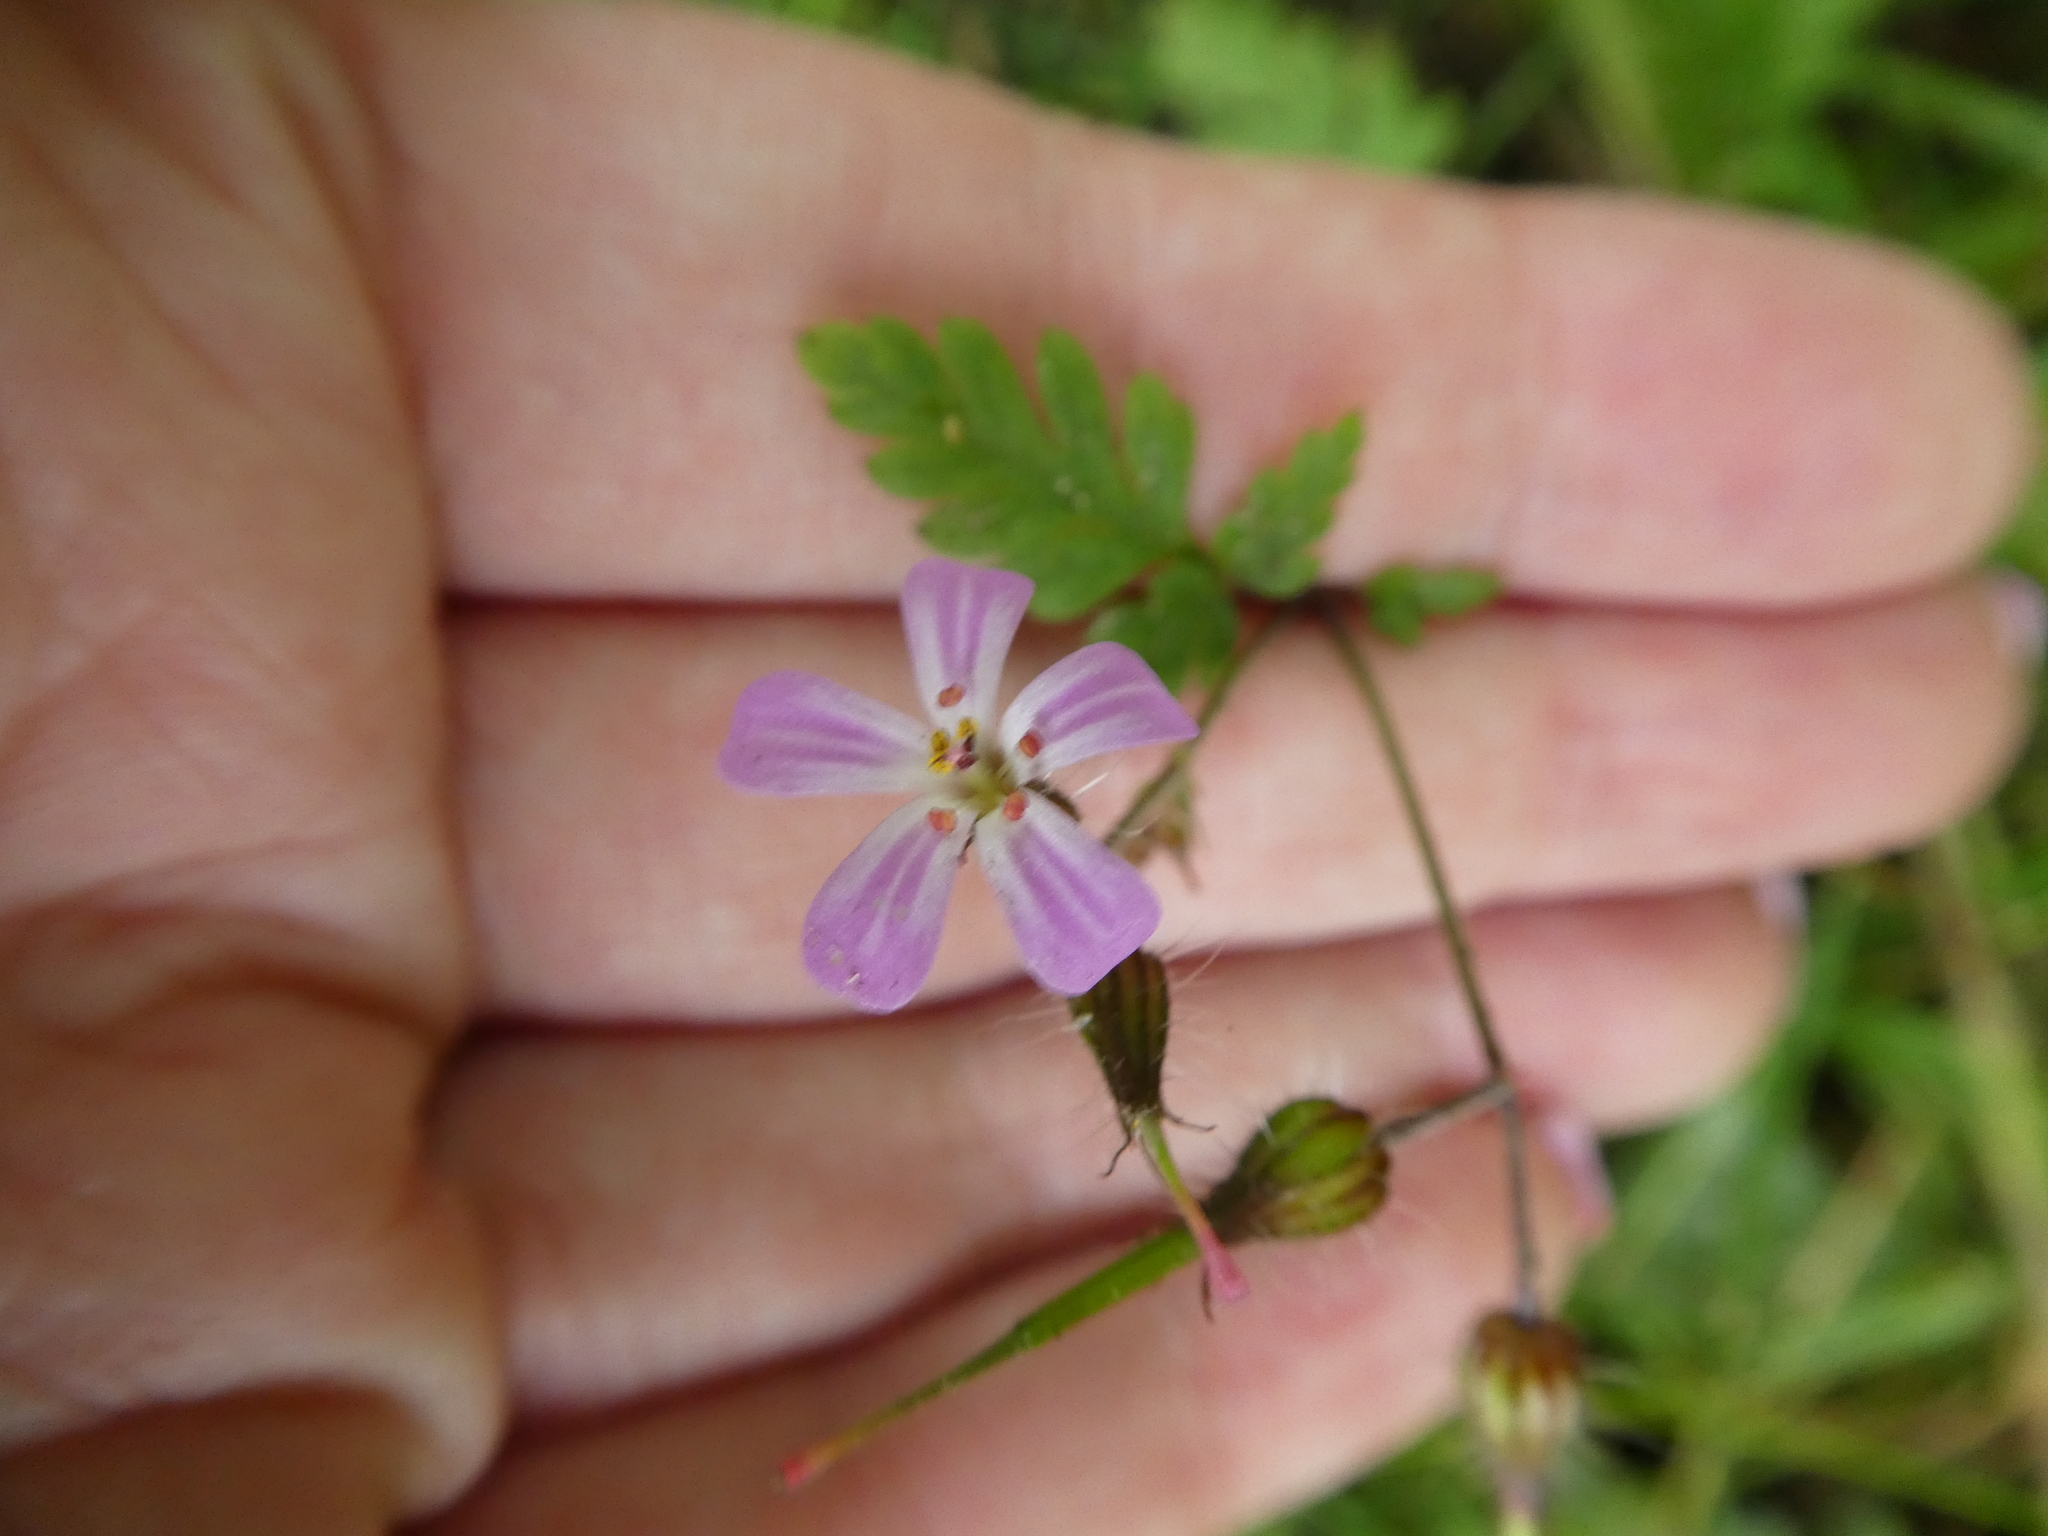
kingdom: Plantae
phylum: Tracheophyta
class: Magnoliopsida
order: Geraniales
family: Geraniaceae
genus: Geranium
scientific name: Geranium robertianum
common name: Herb-robert
